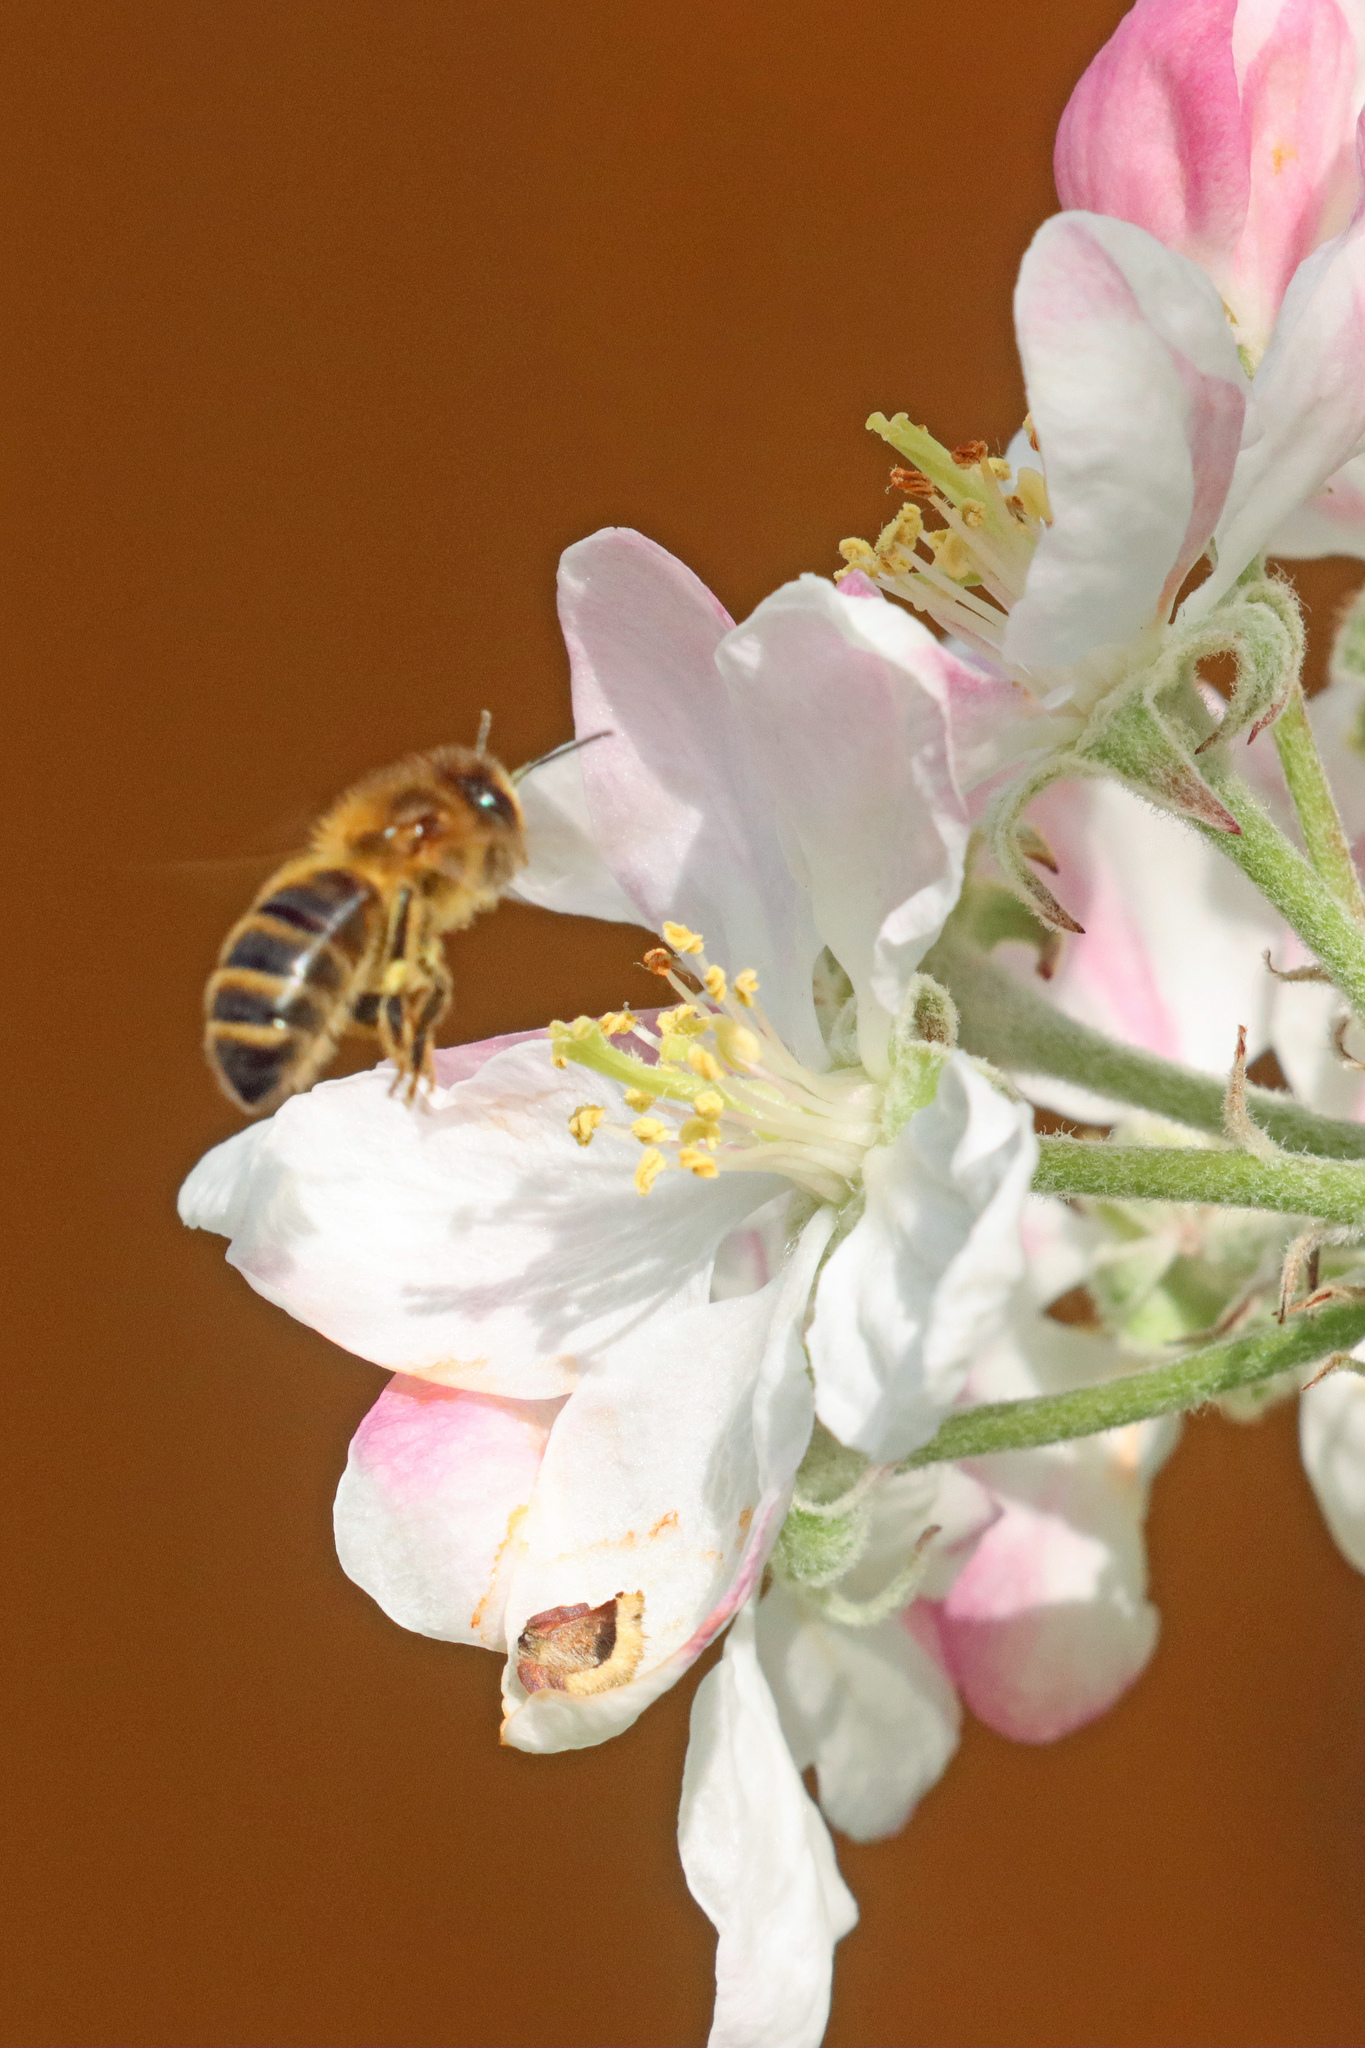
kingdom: Animalia
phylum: Arthropoda
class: Insecta
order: Hymenoptera
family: Apidae
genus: Apis
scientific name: Apis mellifera
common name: Honey bee
